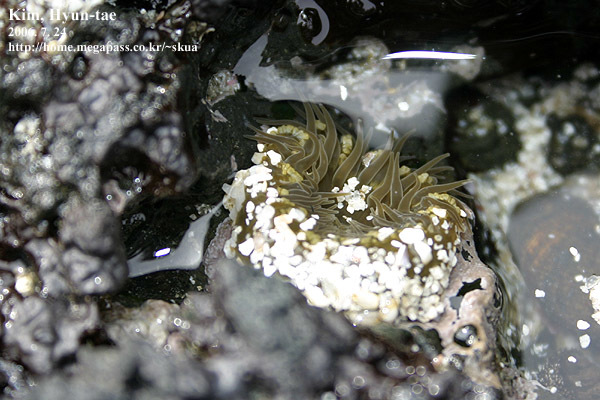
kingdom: Animalia
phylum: Cnidaria
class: Anthozoa
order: Actiniaria
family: Actiniidae
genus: Anthopleura
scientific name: Anthopleura inornata
